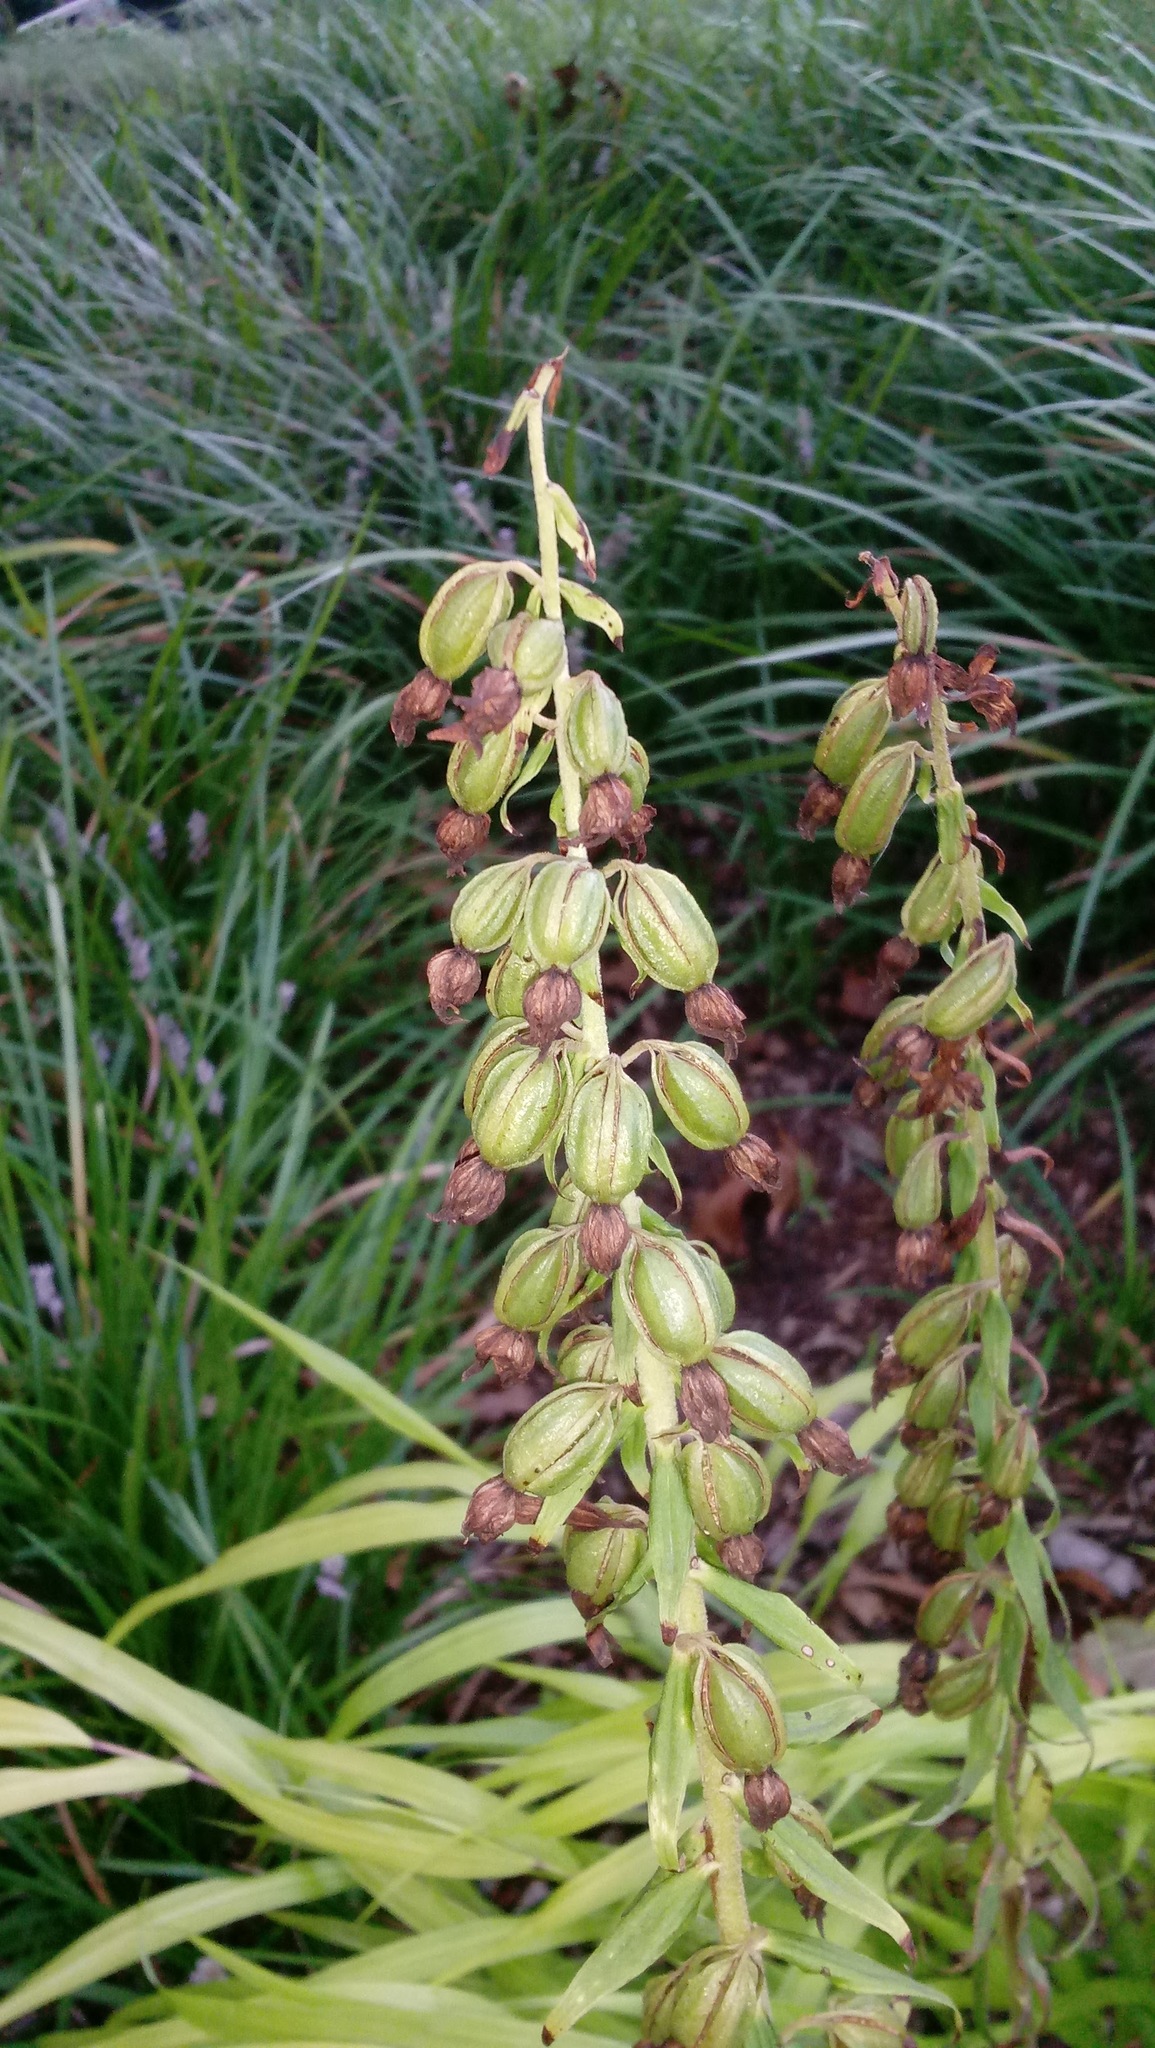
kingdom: Plantae
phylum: Tracheophyta
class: Liliopsida
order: Asparagales
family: Orchidaceae
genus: Epipactis
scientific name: Epipactis helleborine
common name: Broad-leaved helleborine
